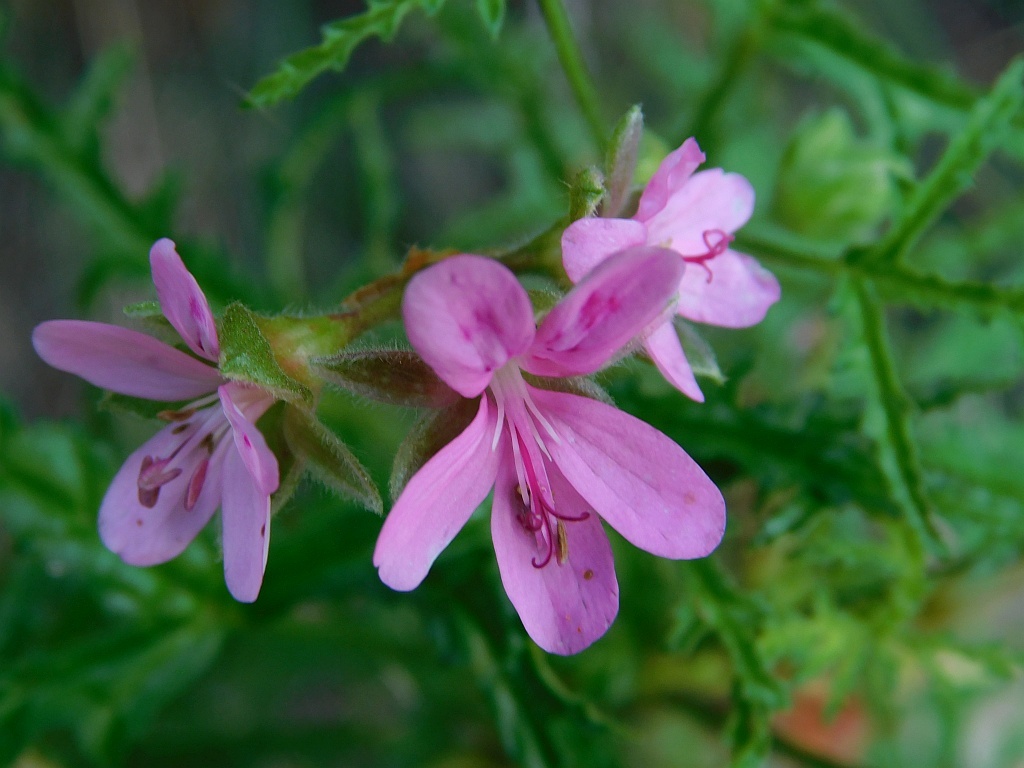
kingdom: Plantae
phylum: Tracheophyta
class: Magnoliopsida
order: Geraniales
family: Geraniaceae
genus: Pelargonium
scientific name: Pelargonium glutinosum
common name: Pheasant-foot geranium
